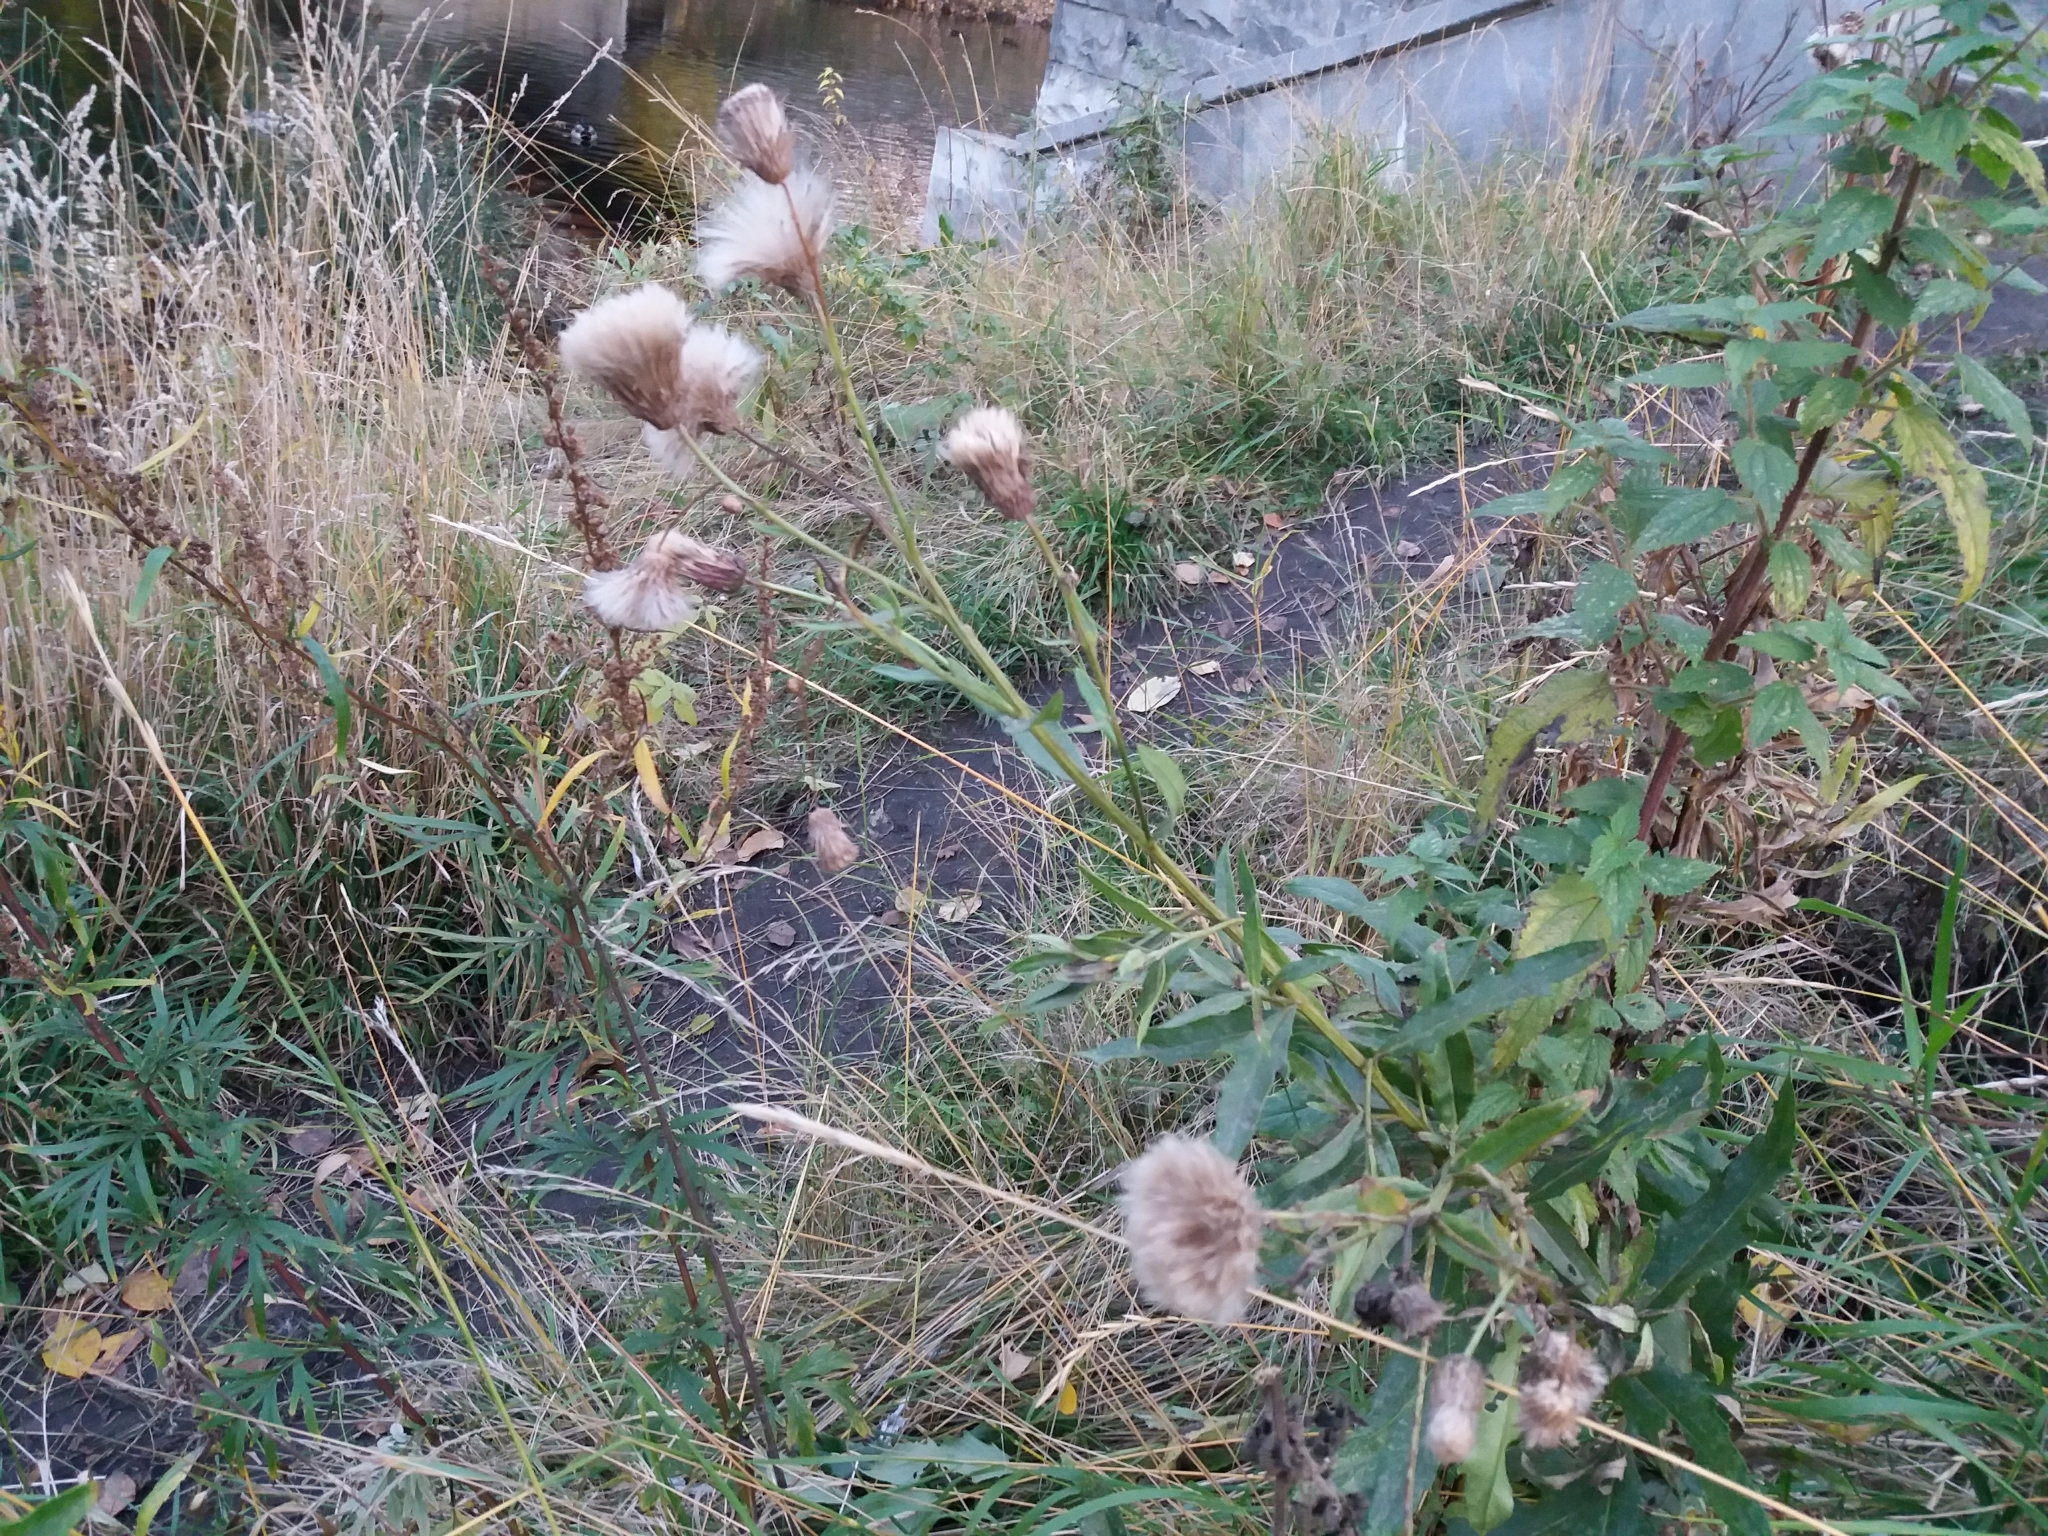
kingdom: Plantae
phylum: Tracheophyta
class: Magnoliopsida
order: Asterales
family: Asteraceae
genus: Cirsium
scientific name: Cirsium arvense
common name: Creeping thistle
